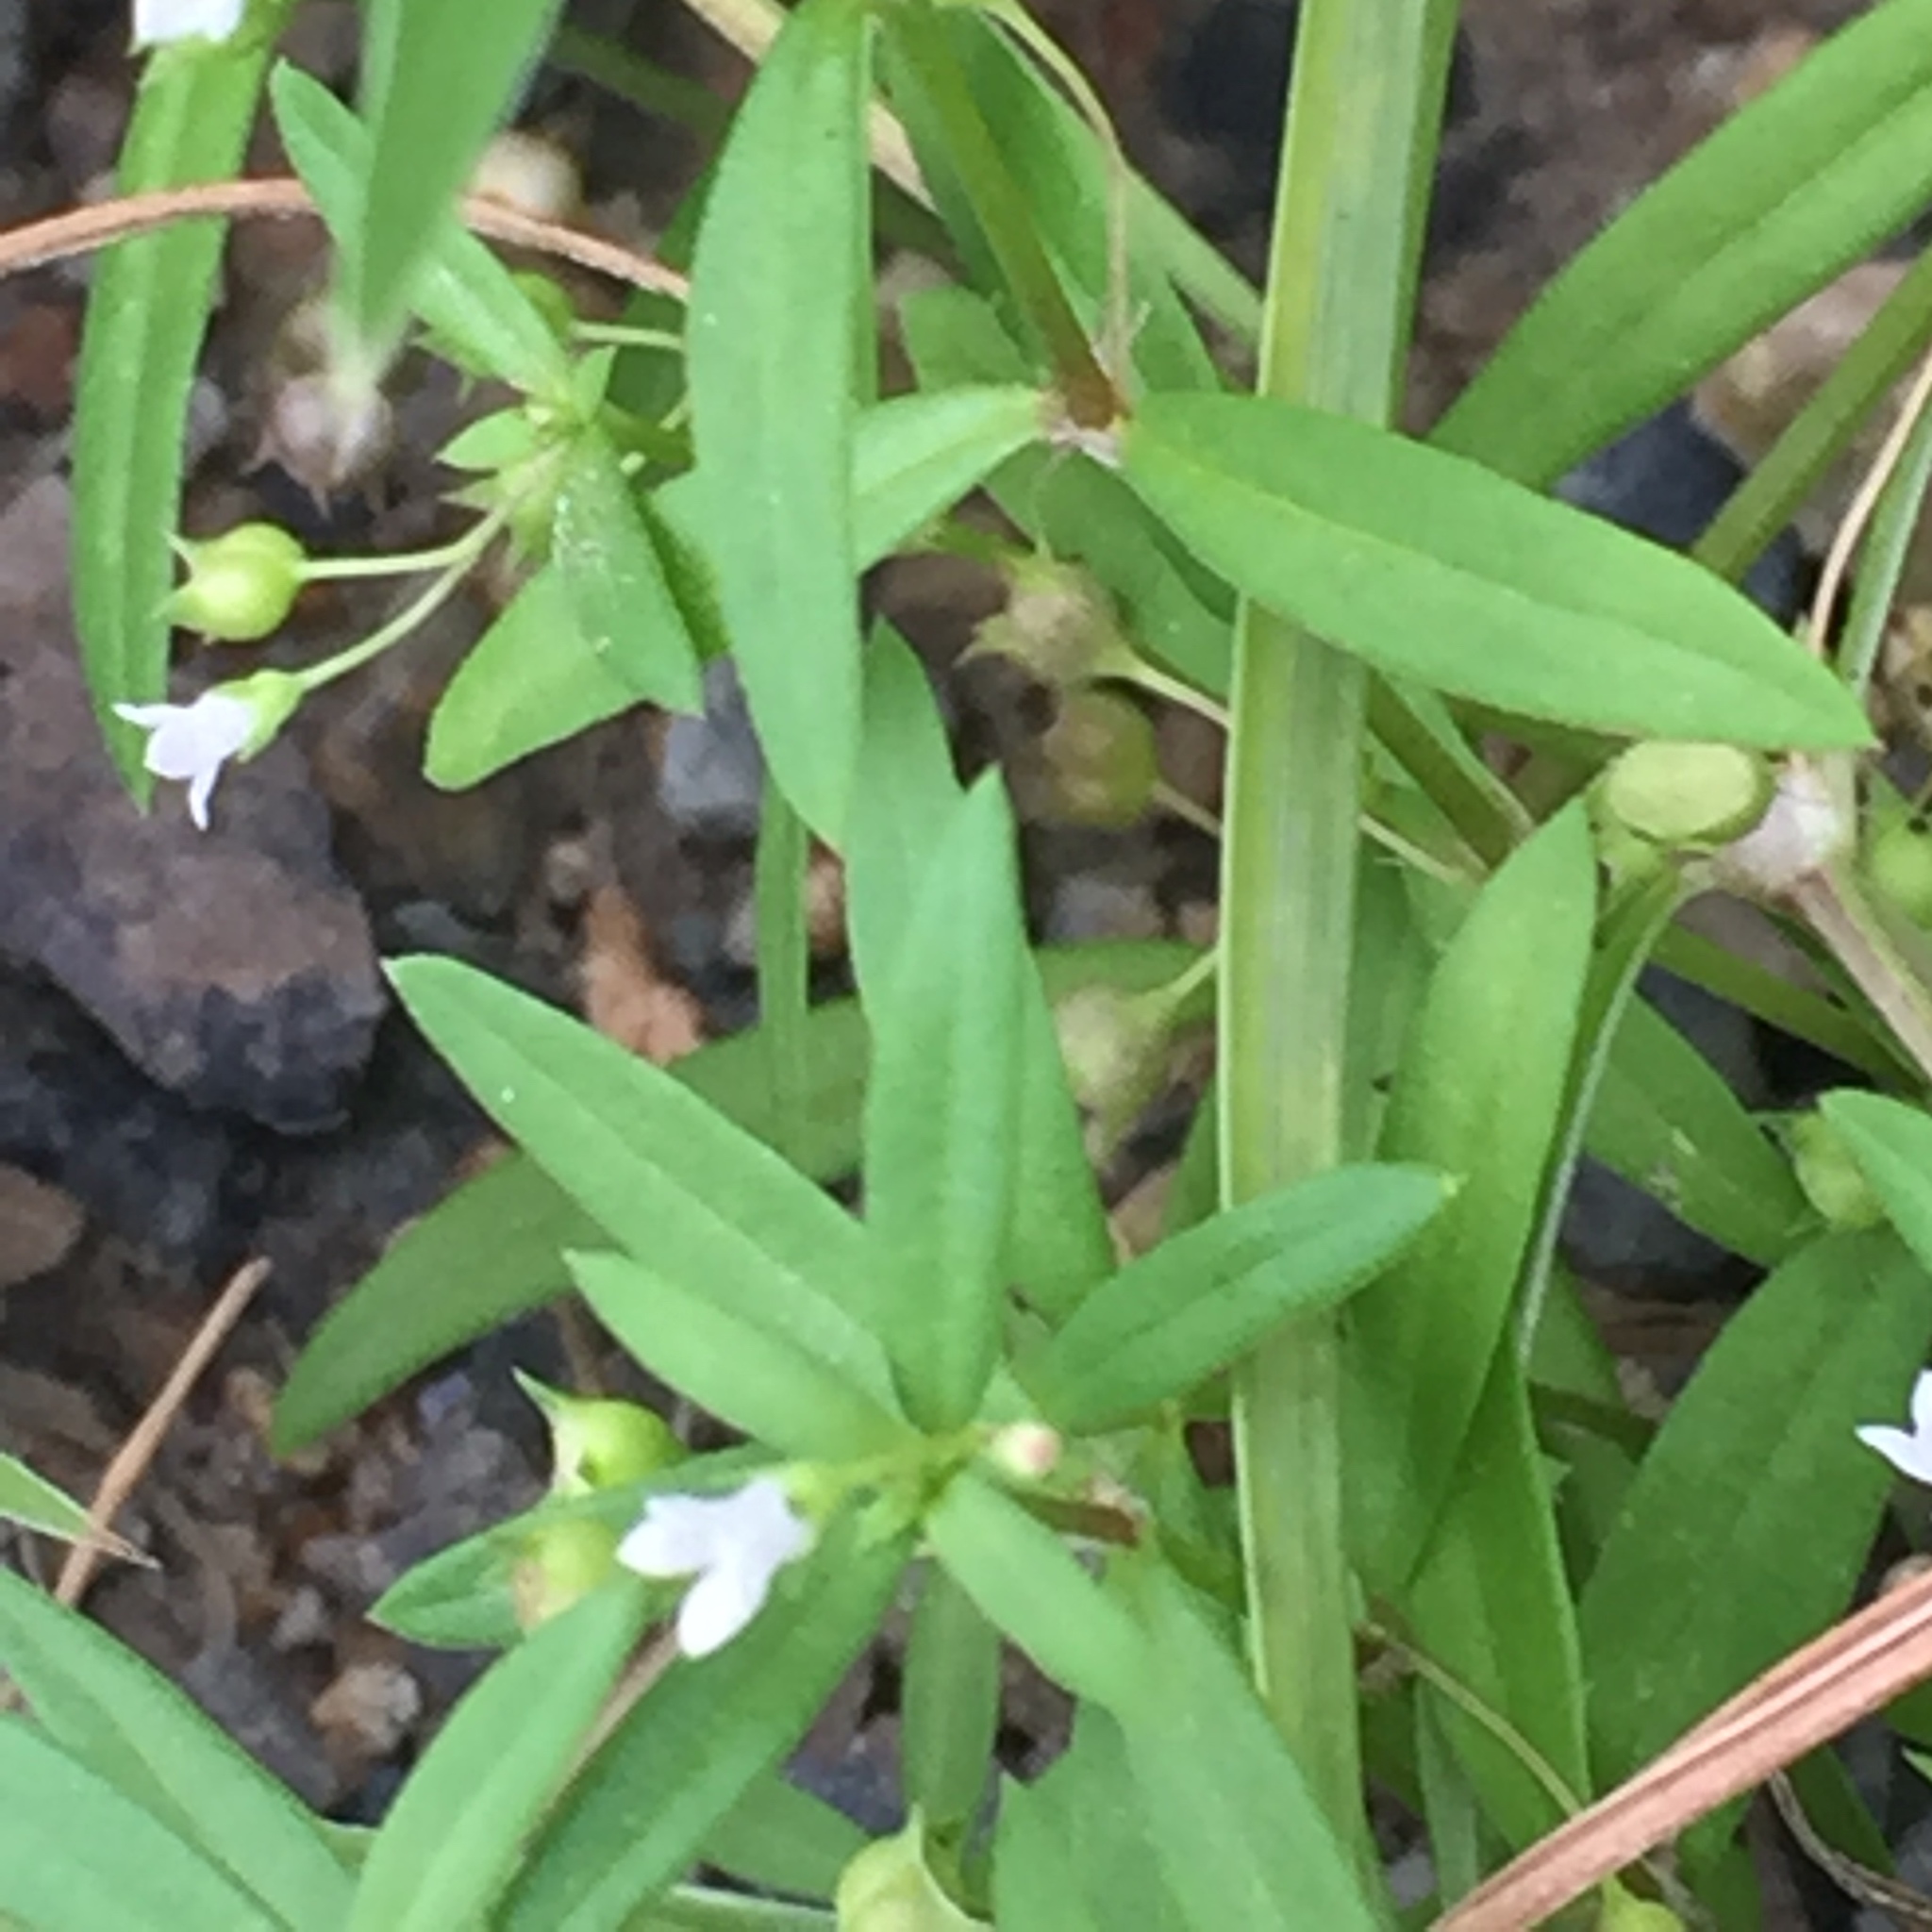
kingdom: Plantae
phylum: Tracheophyta
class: Magnoliopsida
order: Gentianales
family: Rubiaceae
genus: Oldenlandia
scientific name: Oldenlandia corymbosa
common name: Flat-top mille graines
